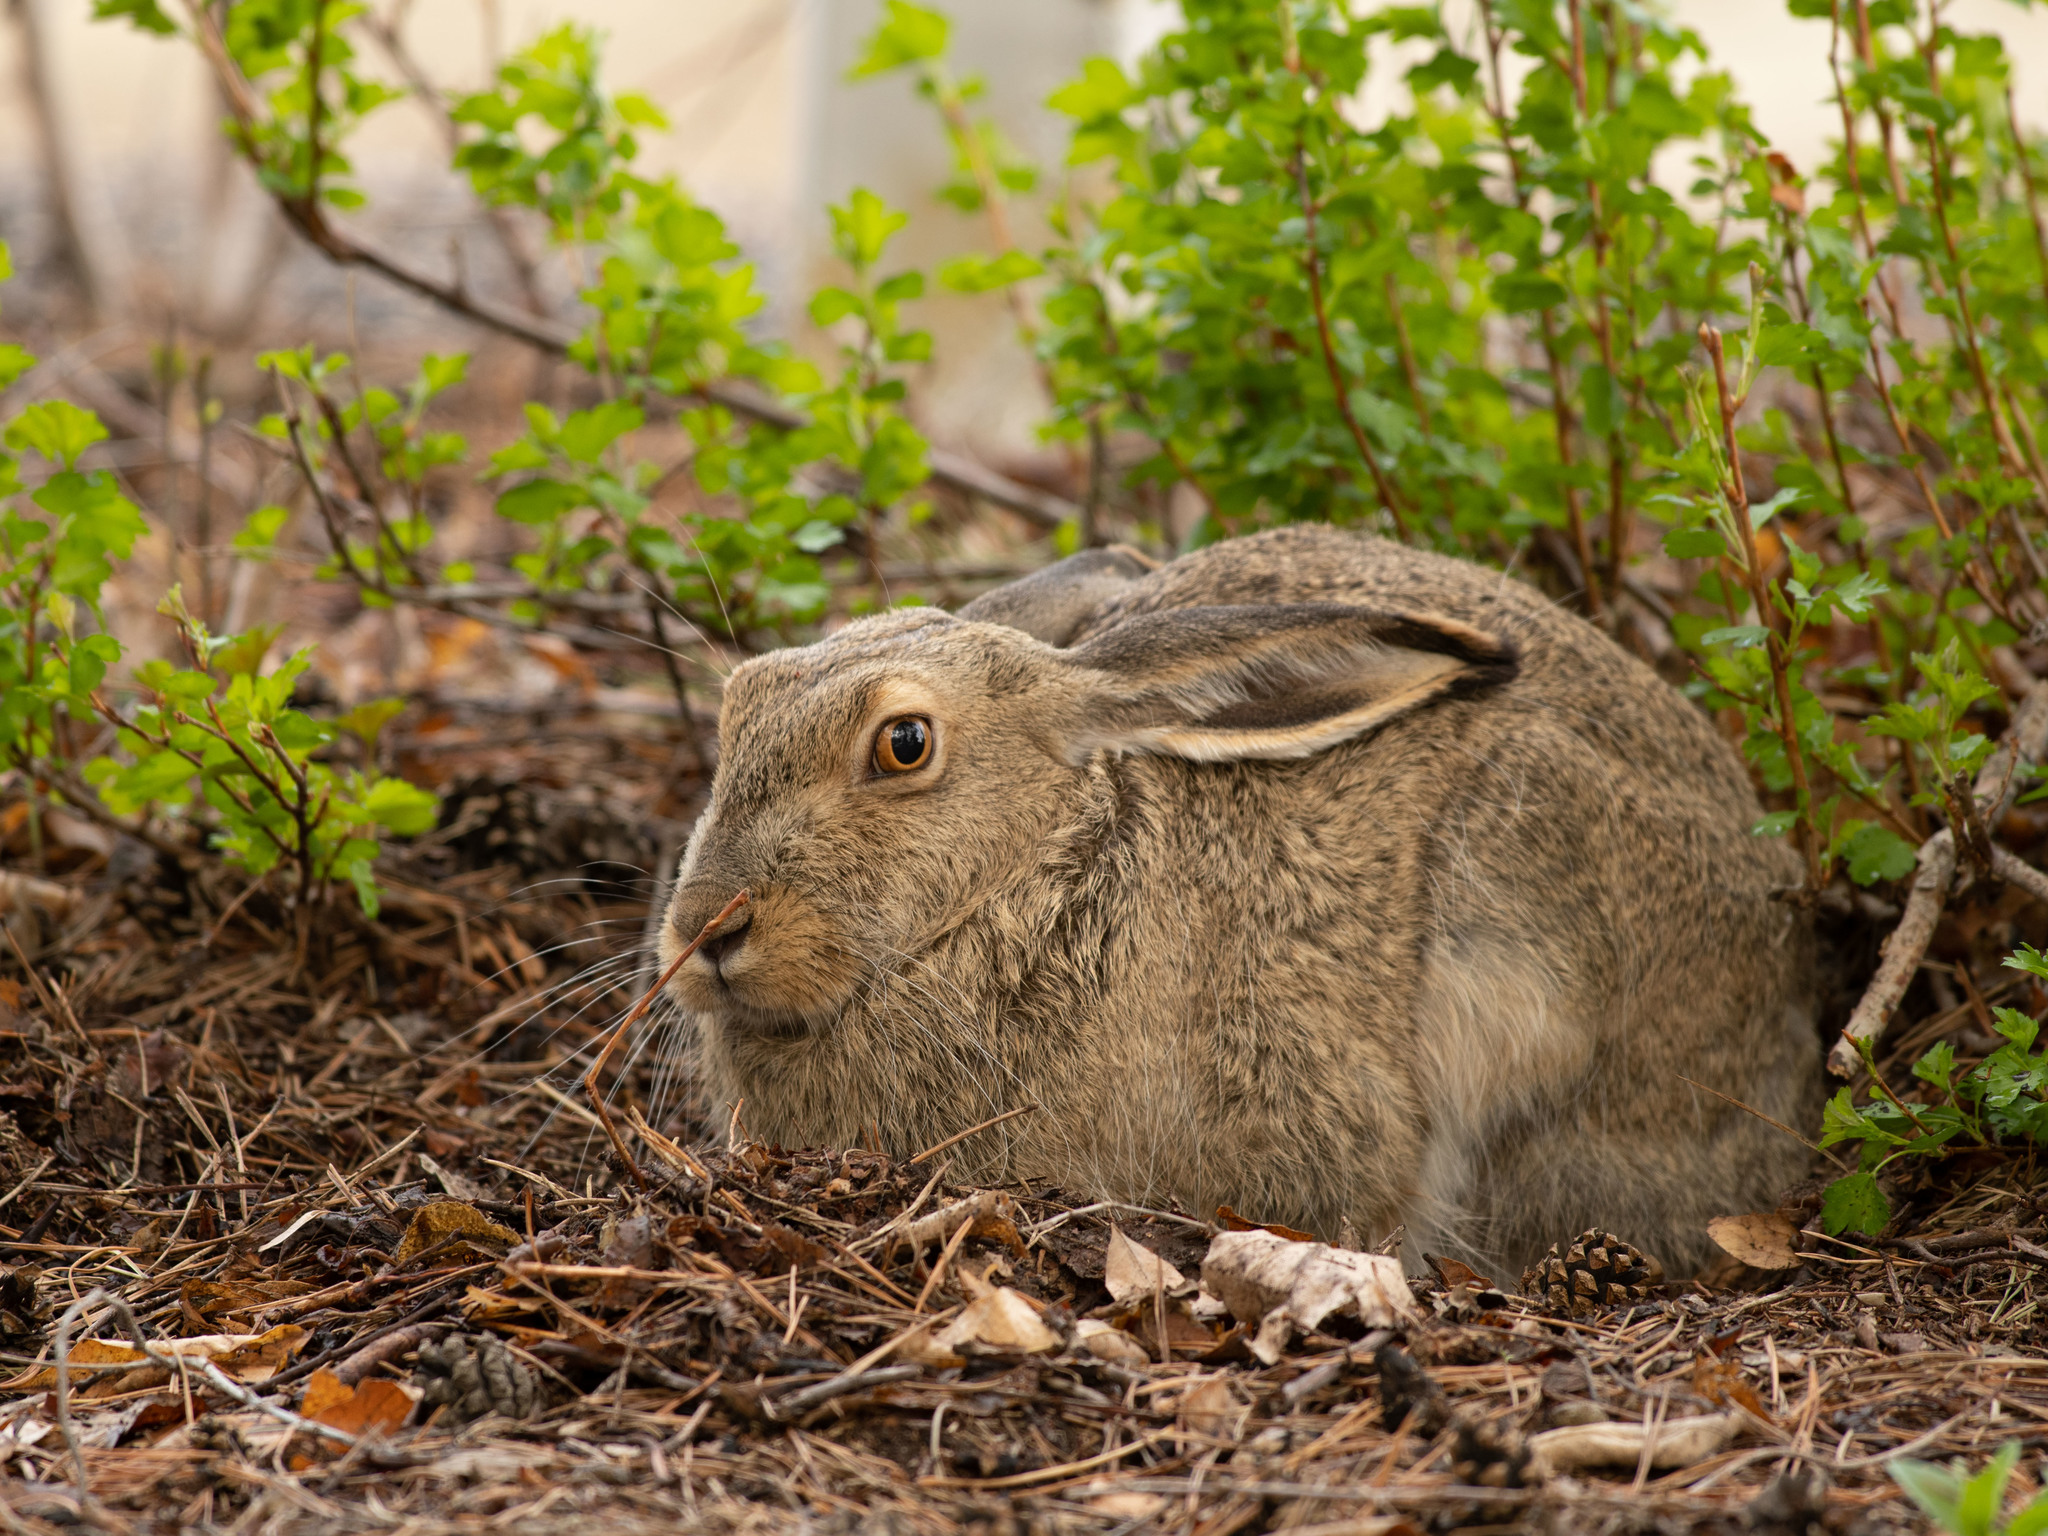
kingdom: Animalia
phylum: Chordata
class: Mammalia
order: Lagomorpha
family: Leporidae
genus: Lepus
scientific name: Lepus townsendii
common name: White-tailed jackrabbit
